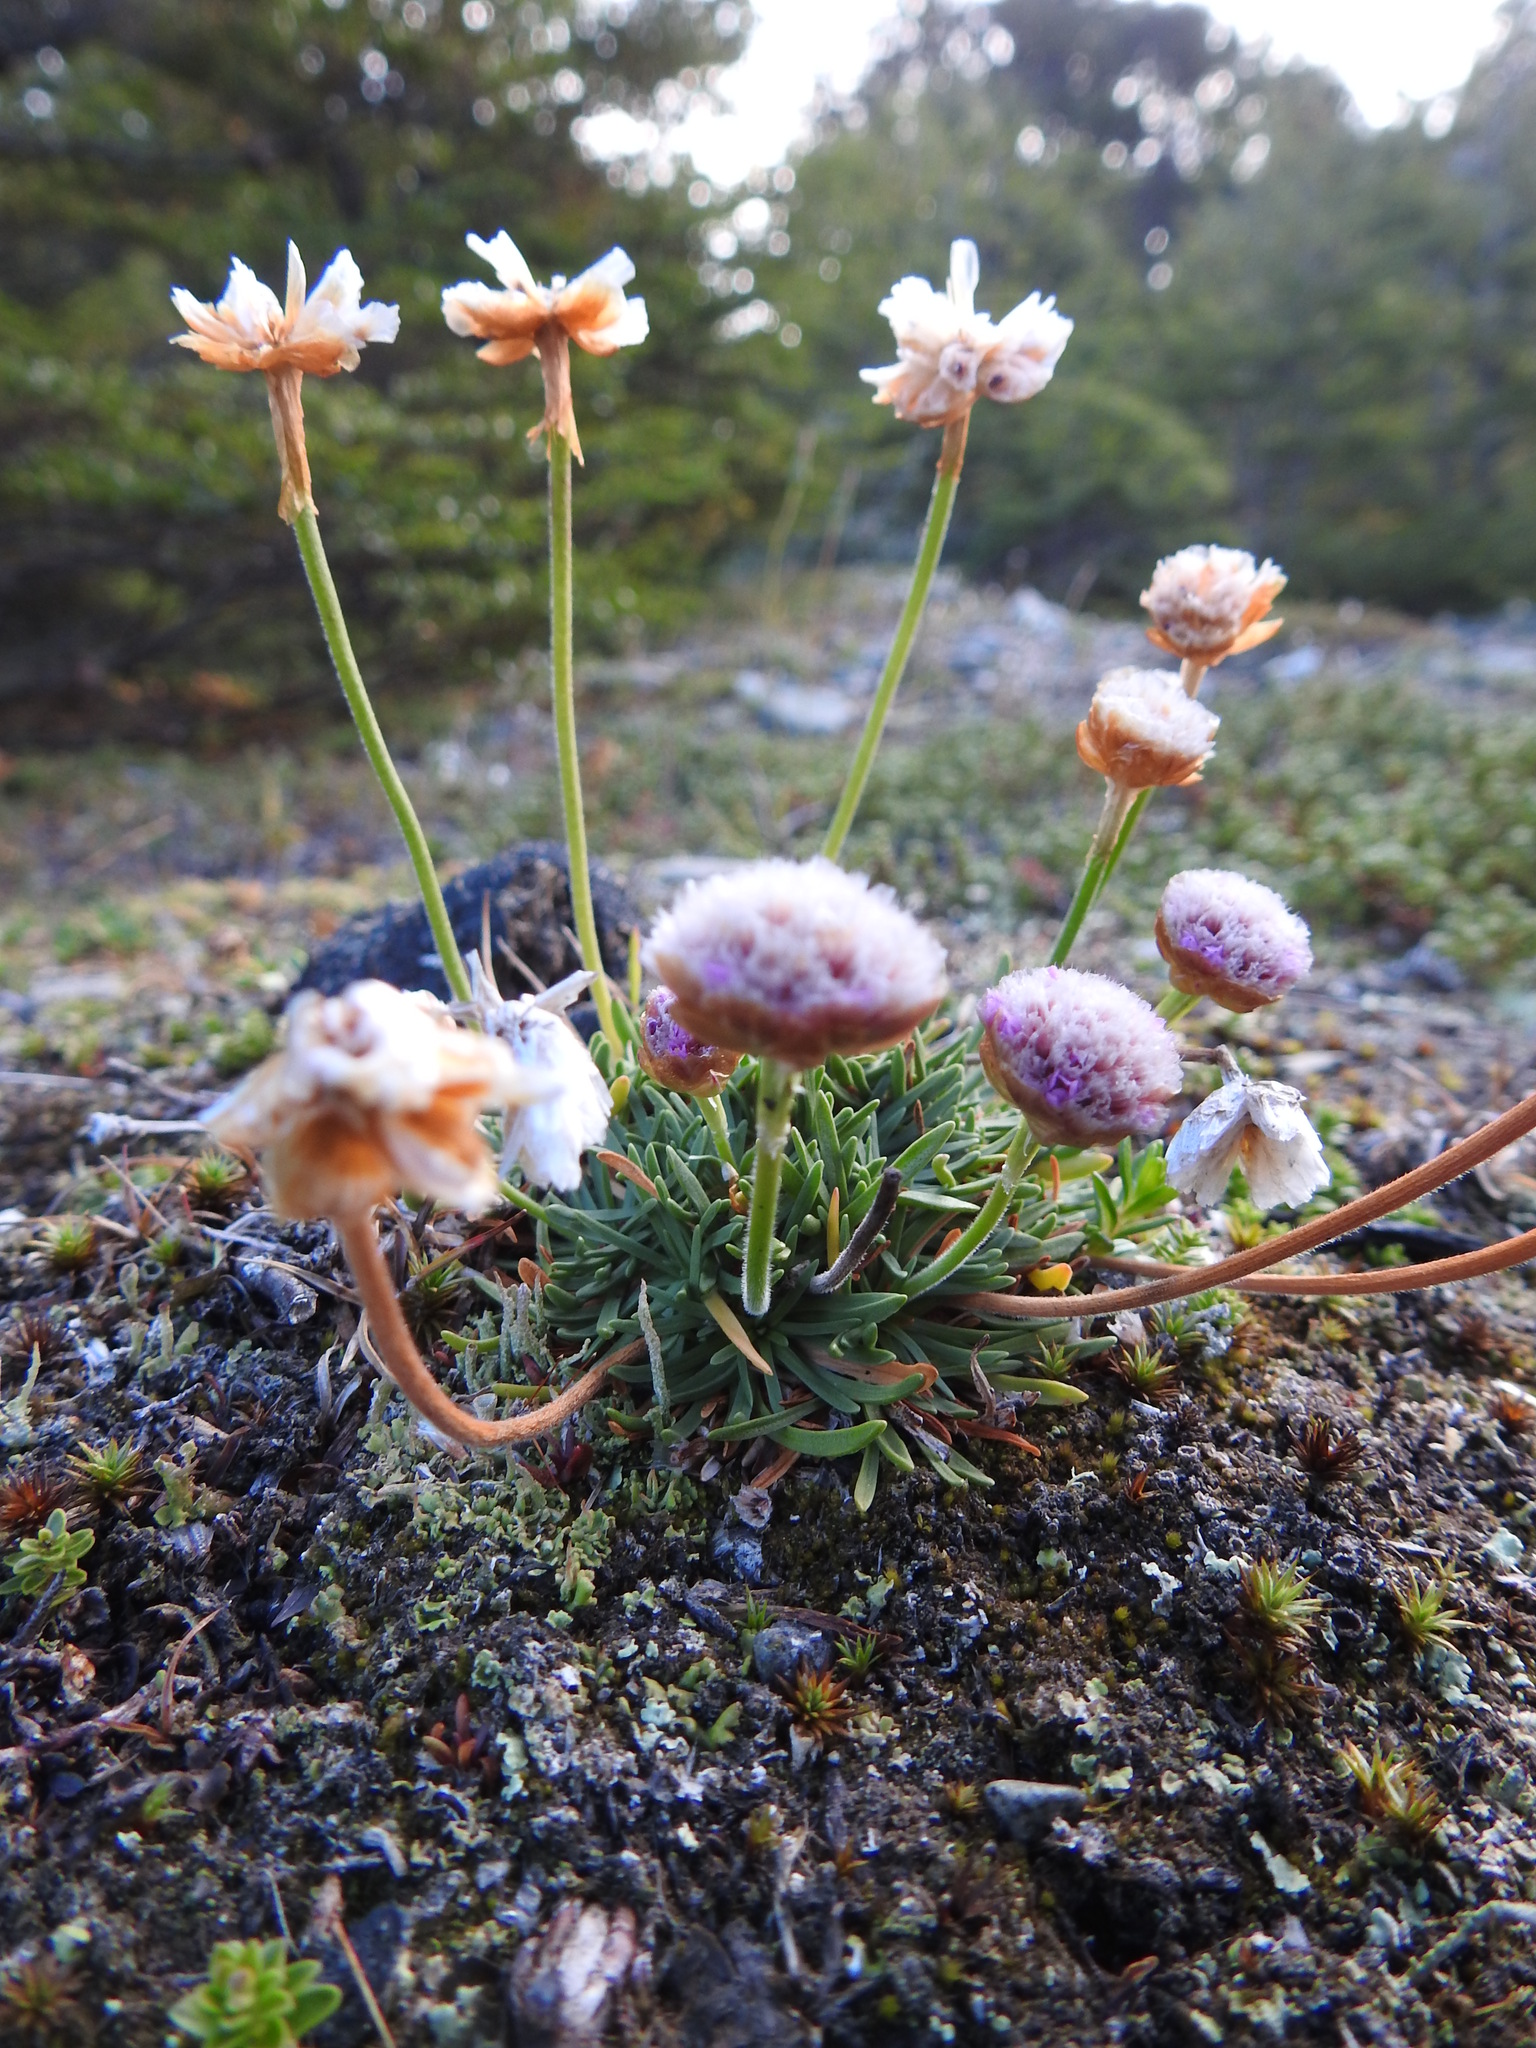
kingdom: Plantae
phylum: Tracheophyta
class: Magnoliopsida
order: Caryophyllales
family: Plumbaginaceae
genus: Armeria
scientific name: Armeria curvifolia
